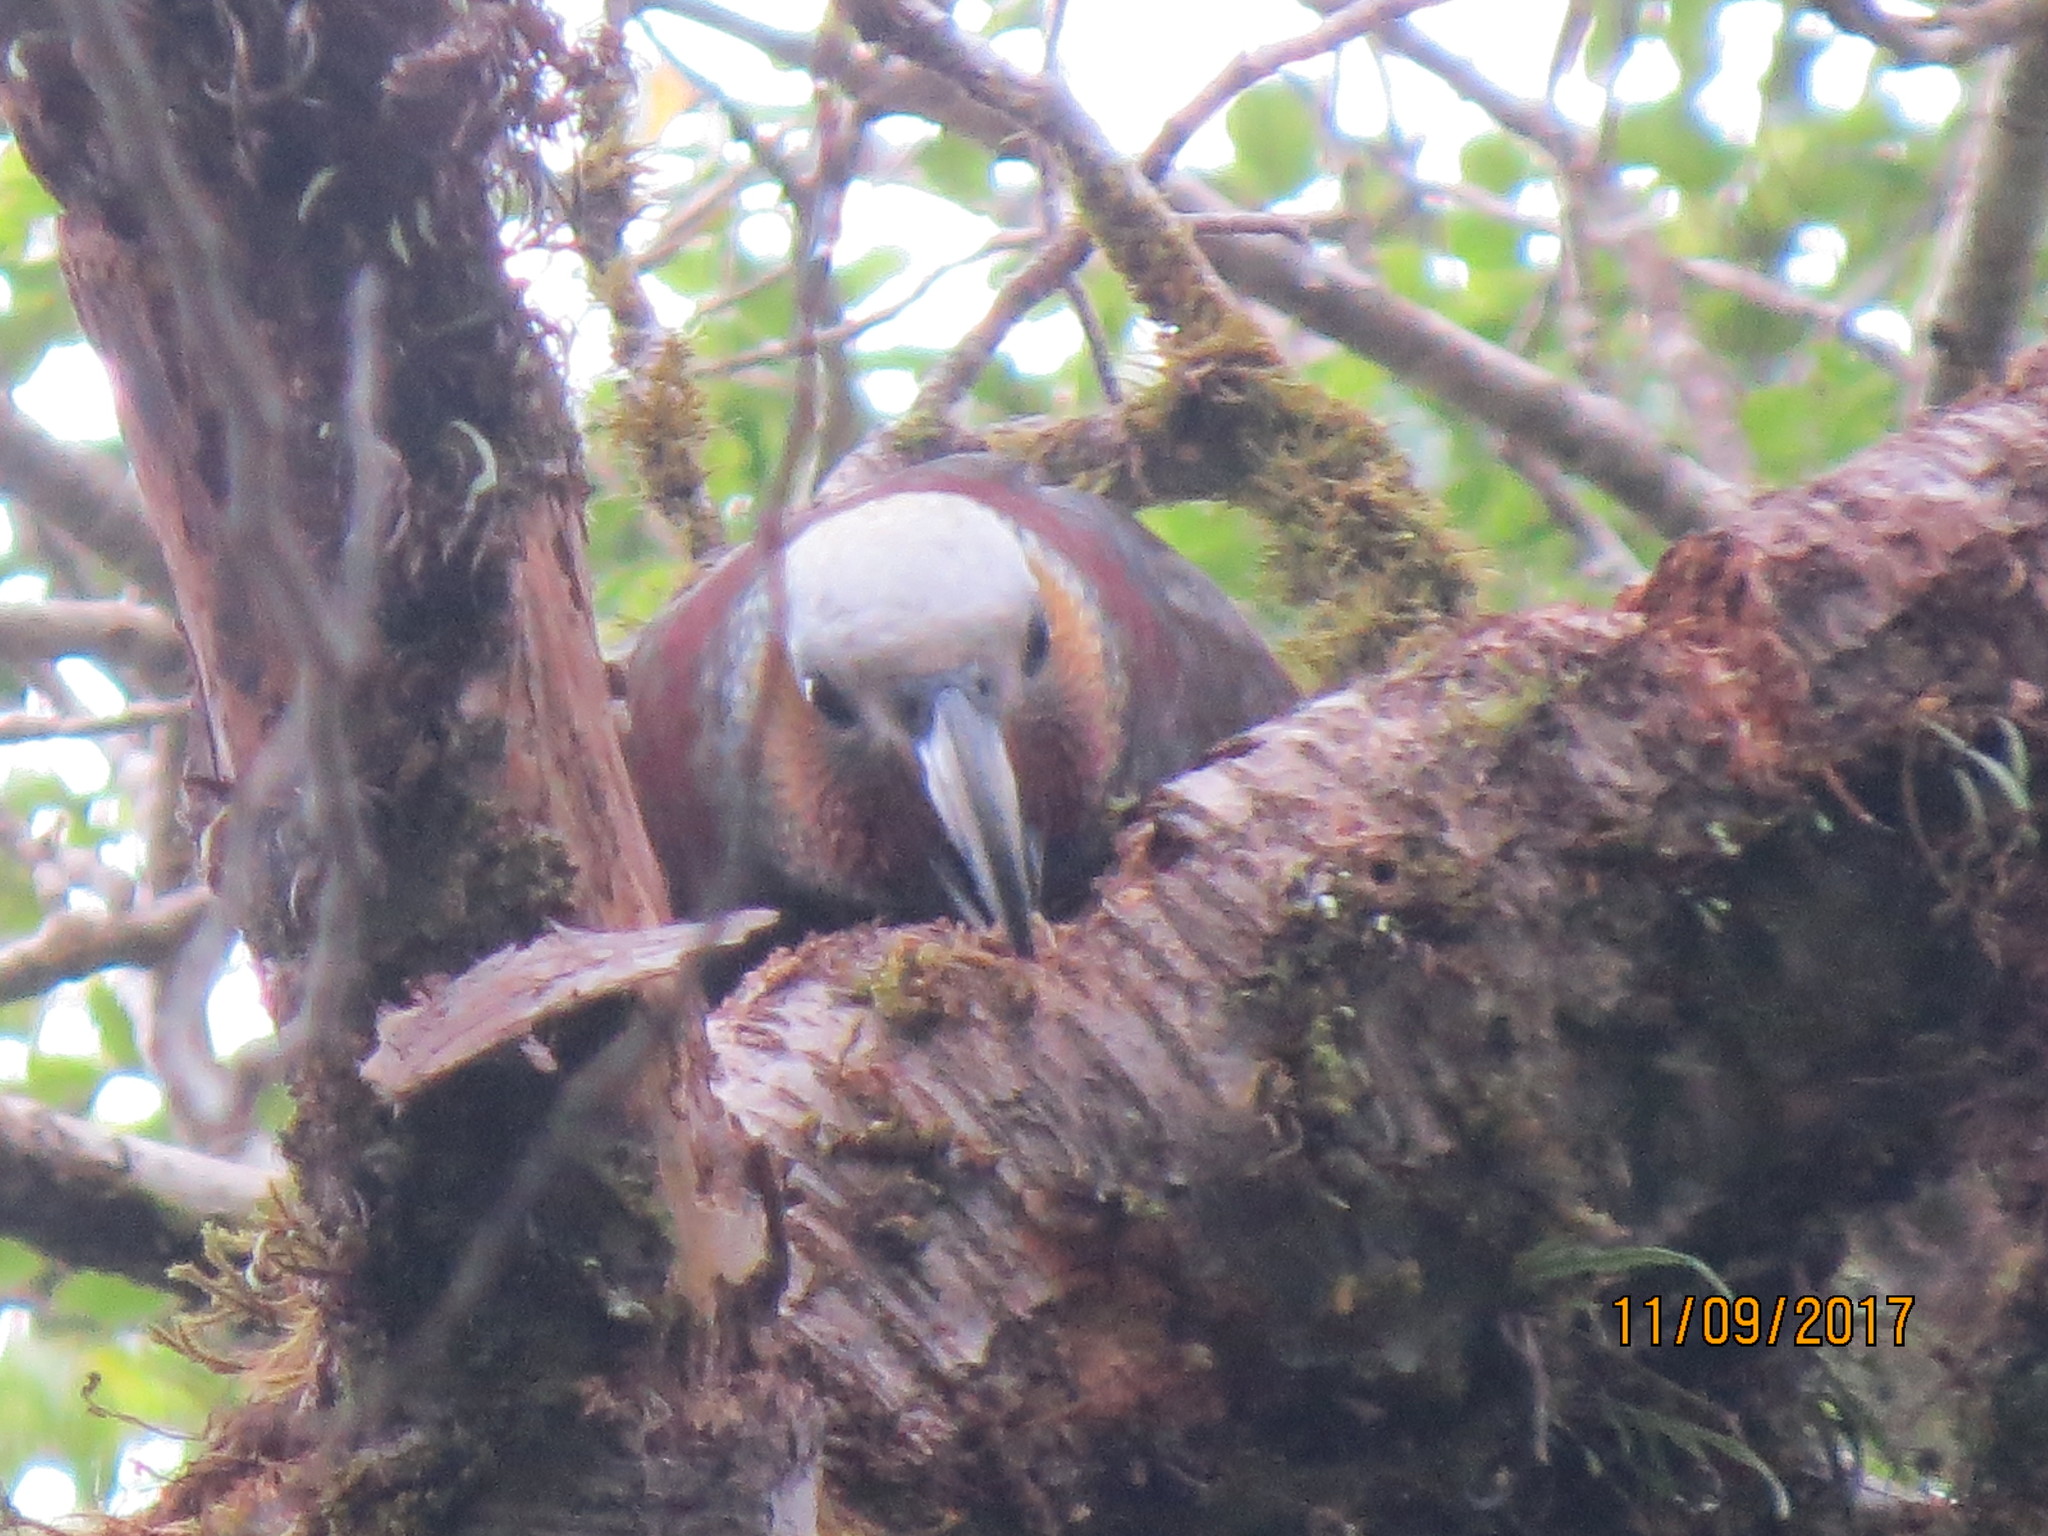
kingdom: Animalia
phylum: Chordata
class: Aves
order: Psittaciformes
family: Psittacidae
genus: Nestor
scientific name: Nestor meridionalis
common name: New zealand kaka
